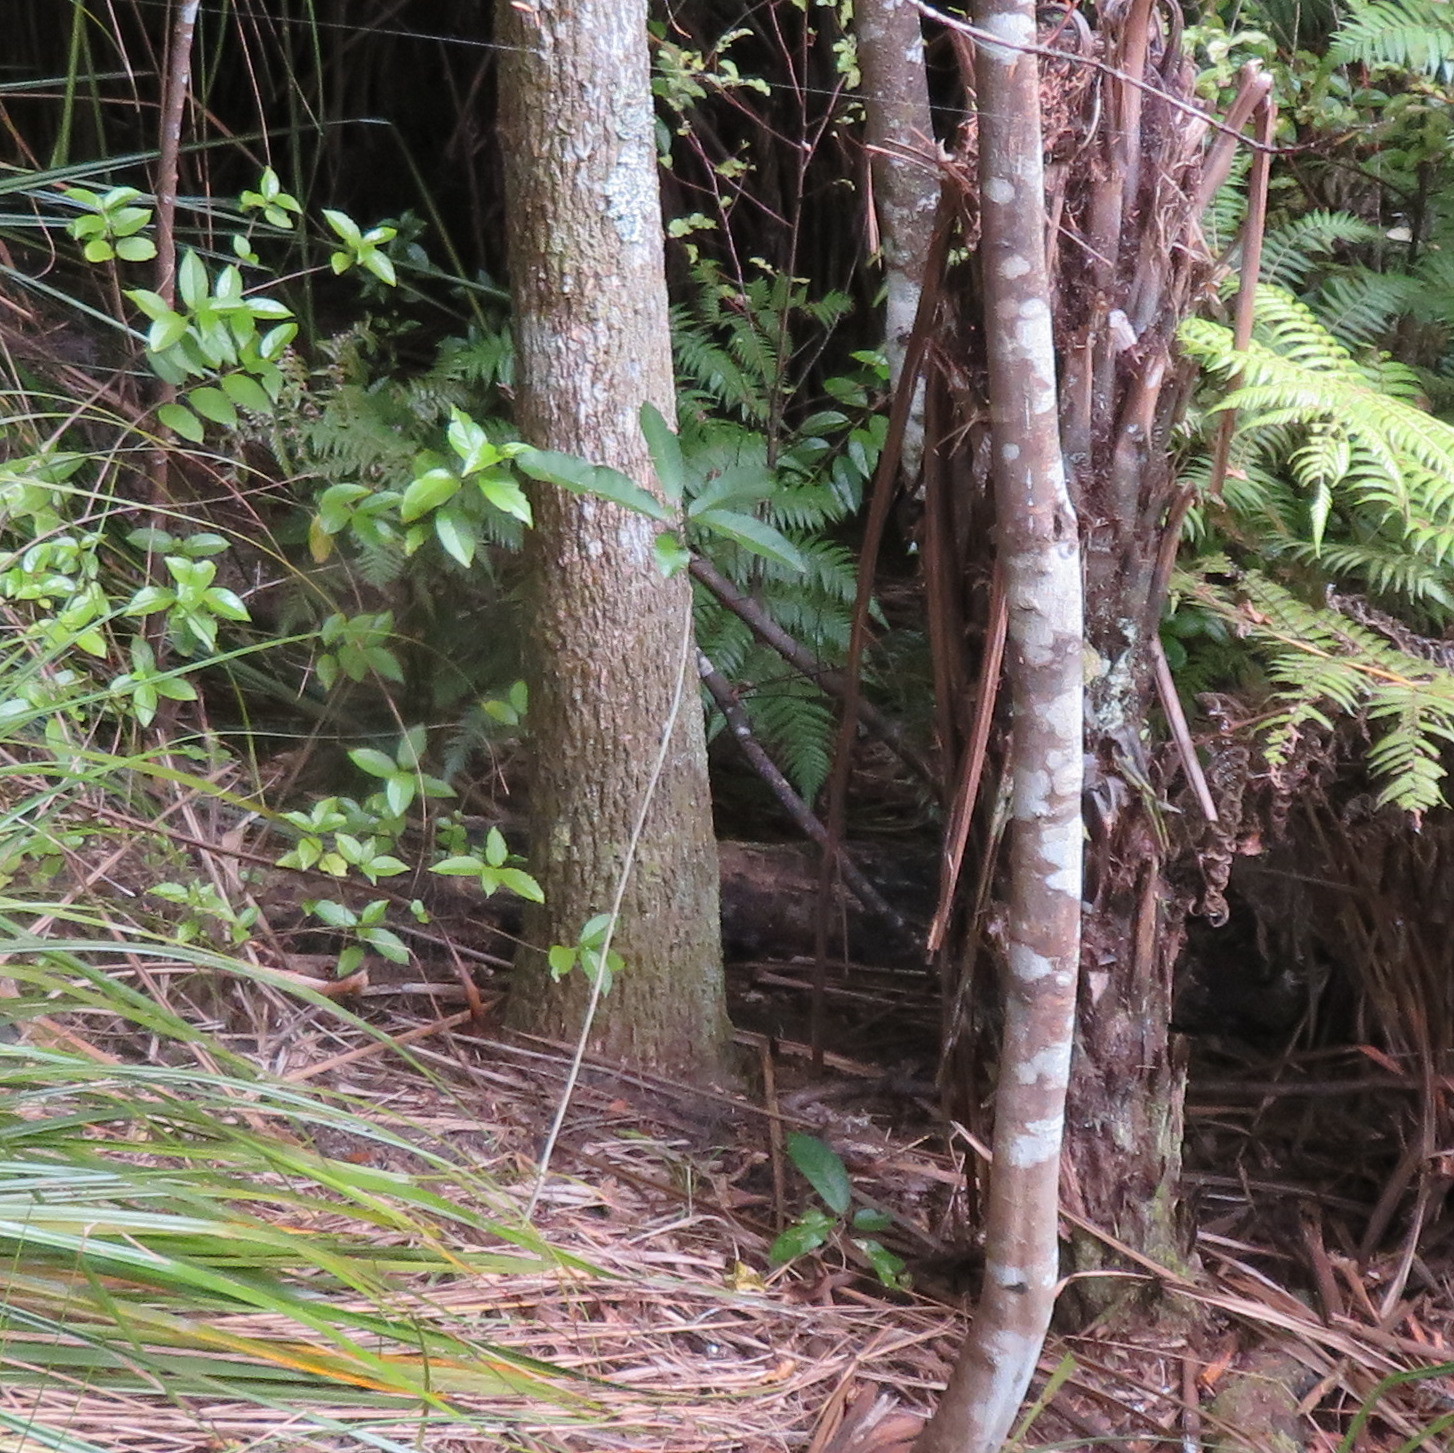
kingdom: Plantae
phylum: Tracheophyta
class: Magnoliopsida
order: Malpighiales
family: Violaceae
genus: Melicytus
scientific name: Melicytus ramiflorus
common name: Mahoe
